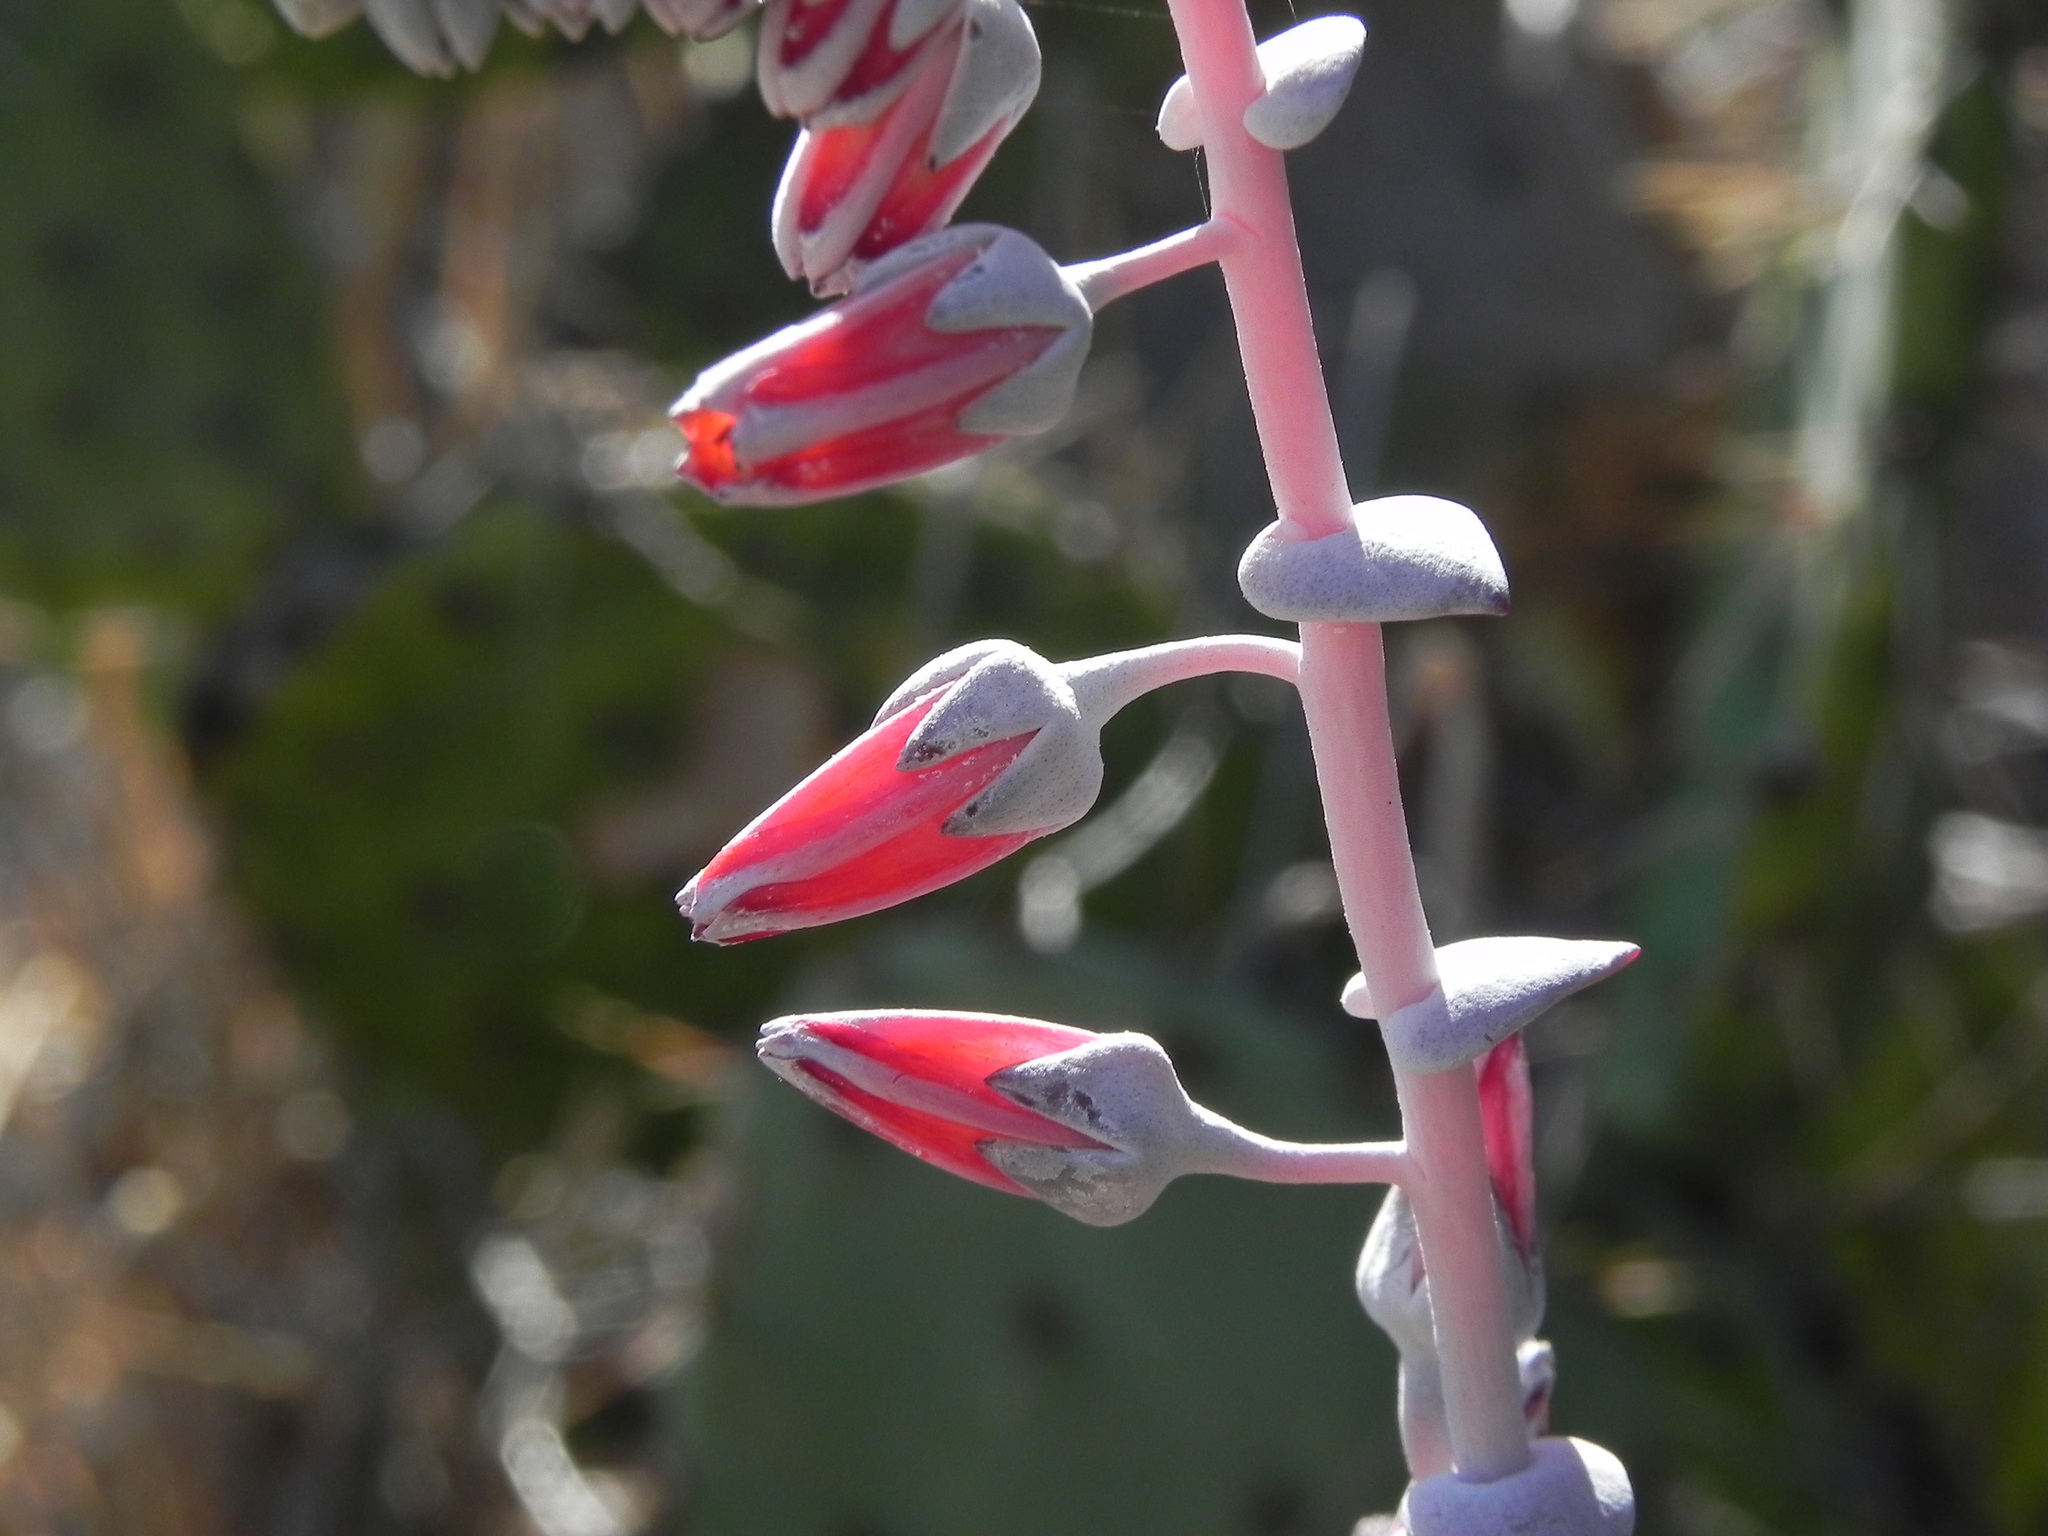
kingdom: Plantae
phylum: Tracheophyta
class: Magnoliopsida
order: Saxifragales
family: Crassulaceae
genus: Dudleya
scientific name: Dudleya pulverulenta
